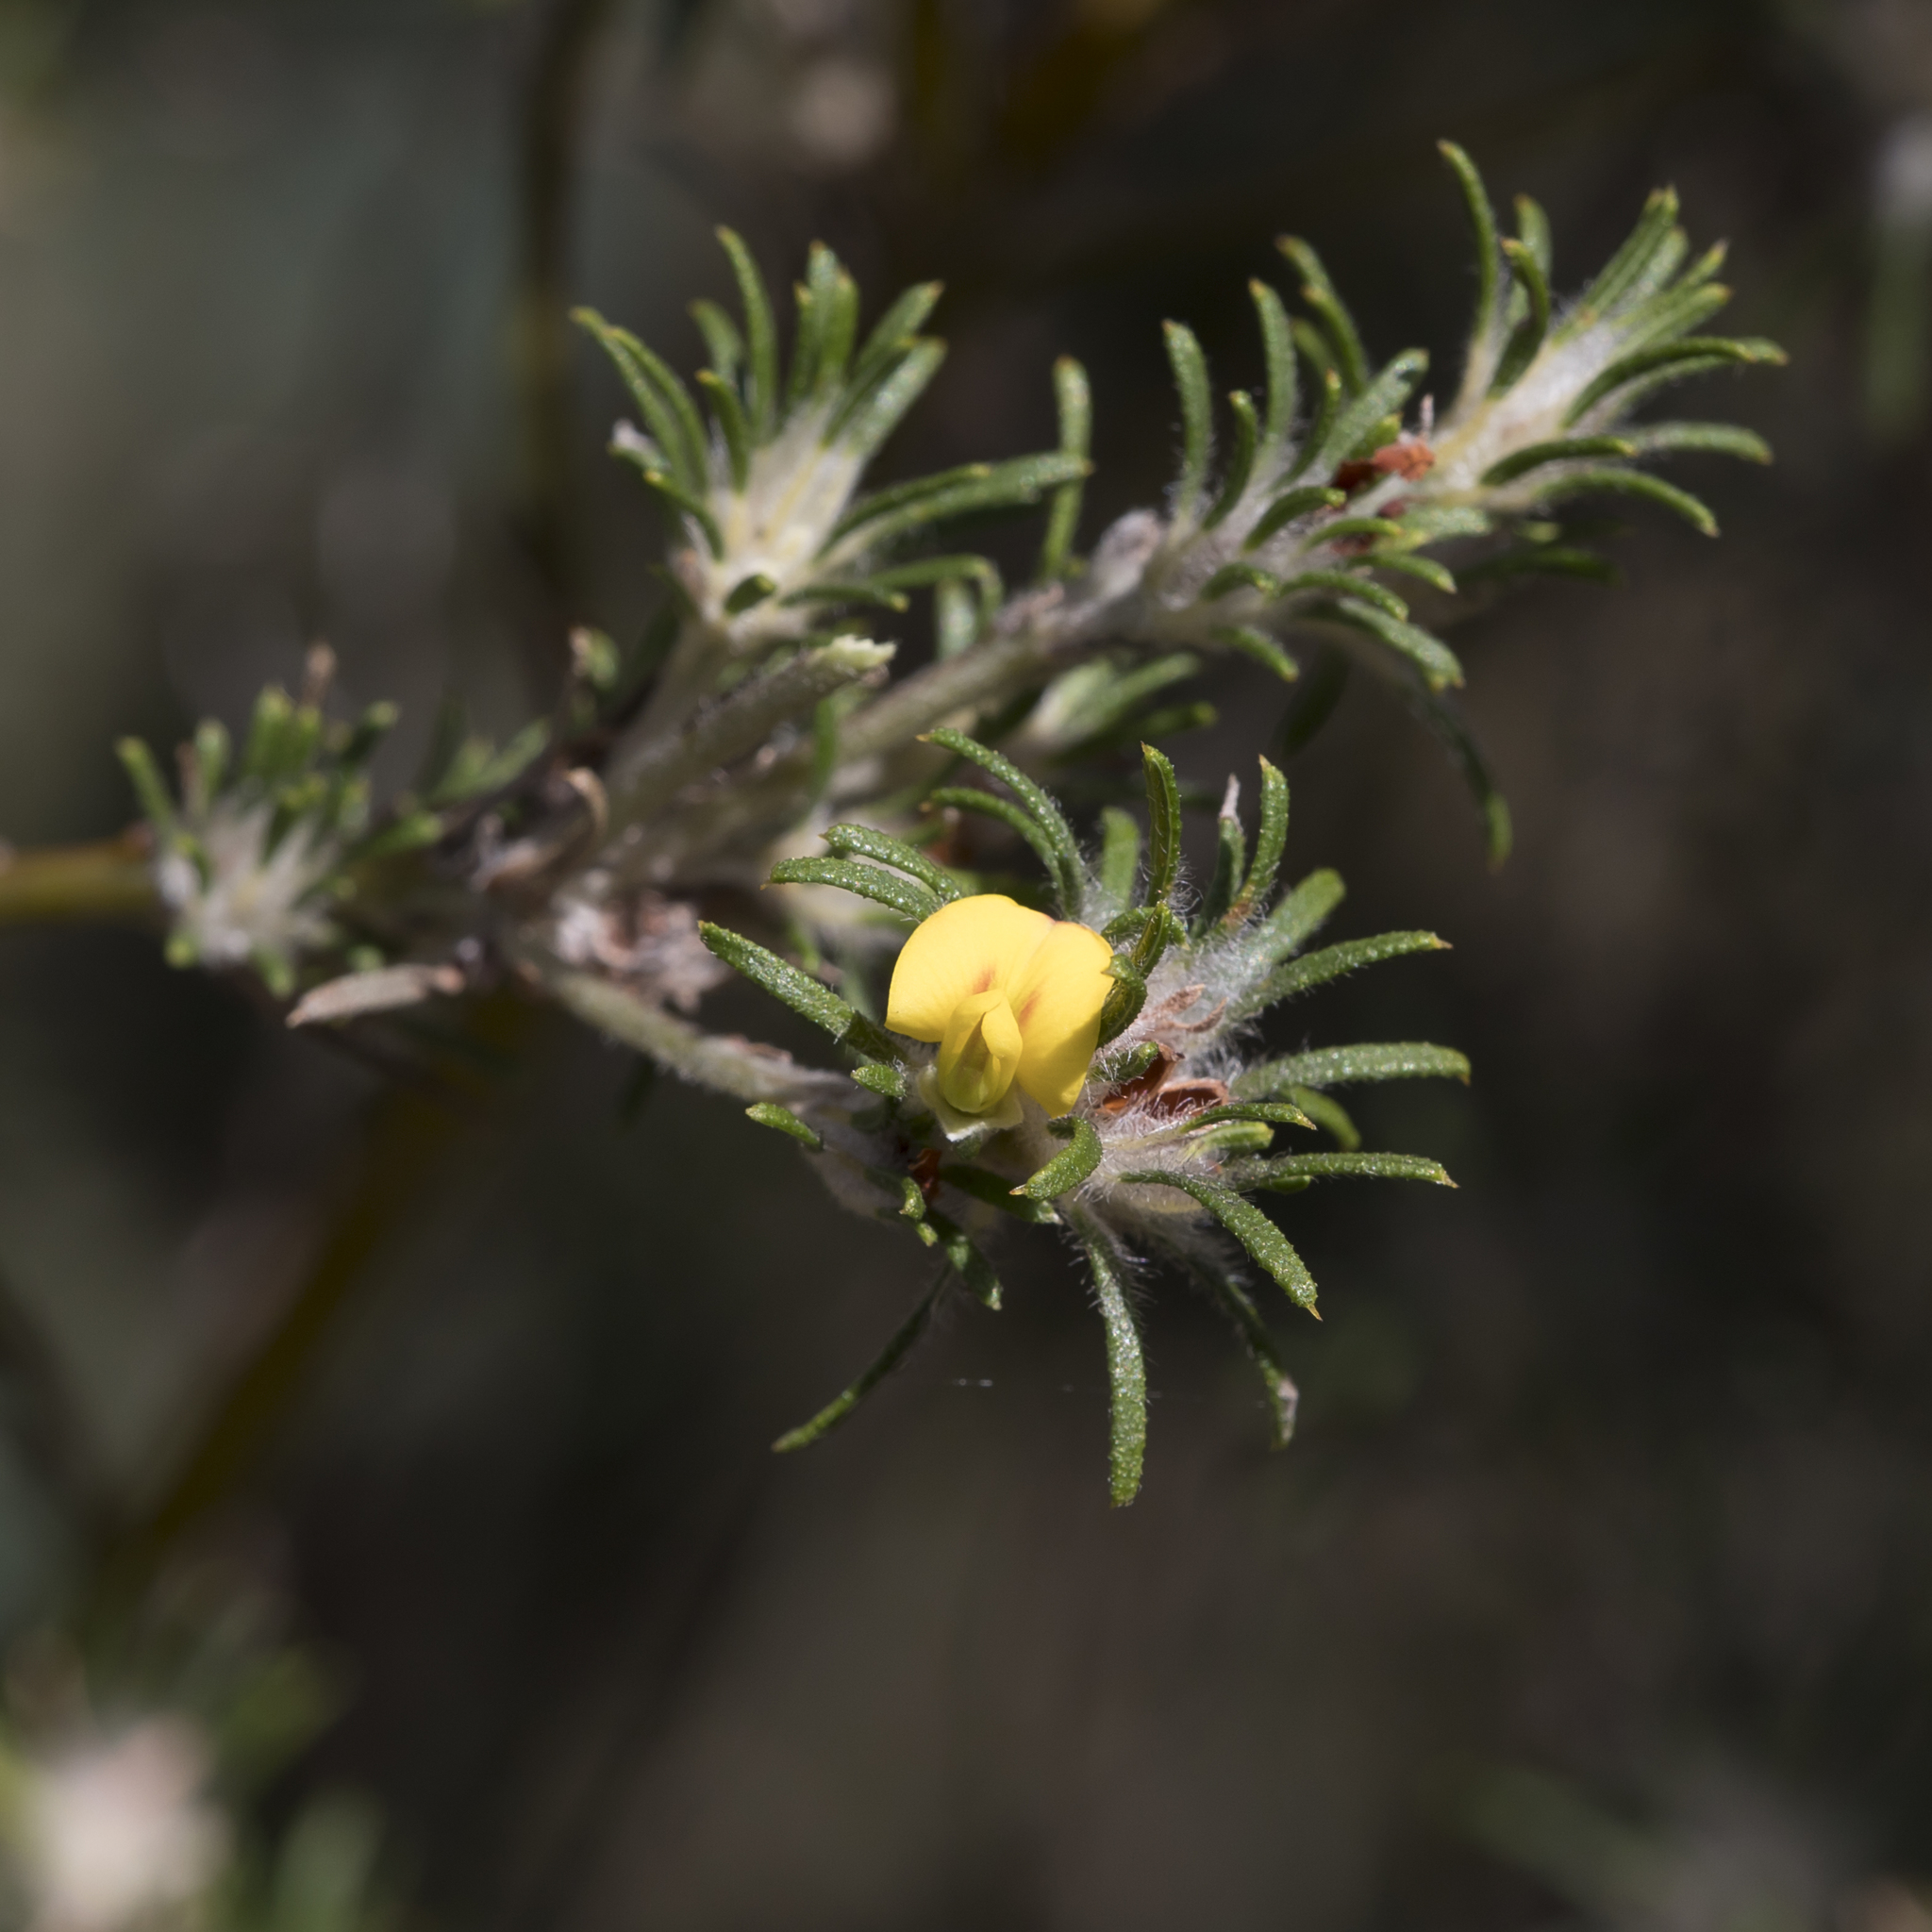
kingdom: Plantae
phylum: Tracheophyta
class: Magnoliopsida
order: Fabales
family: Fabaceae
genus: Phyllota
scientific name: Phyllota pleurandroides
